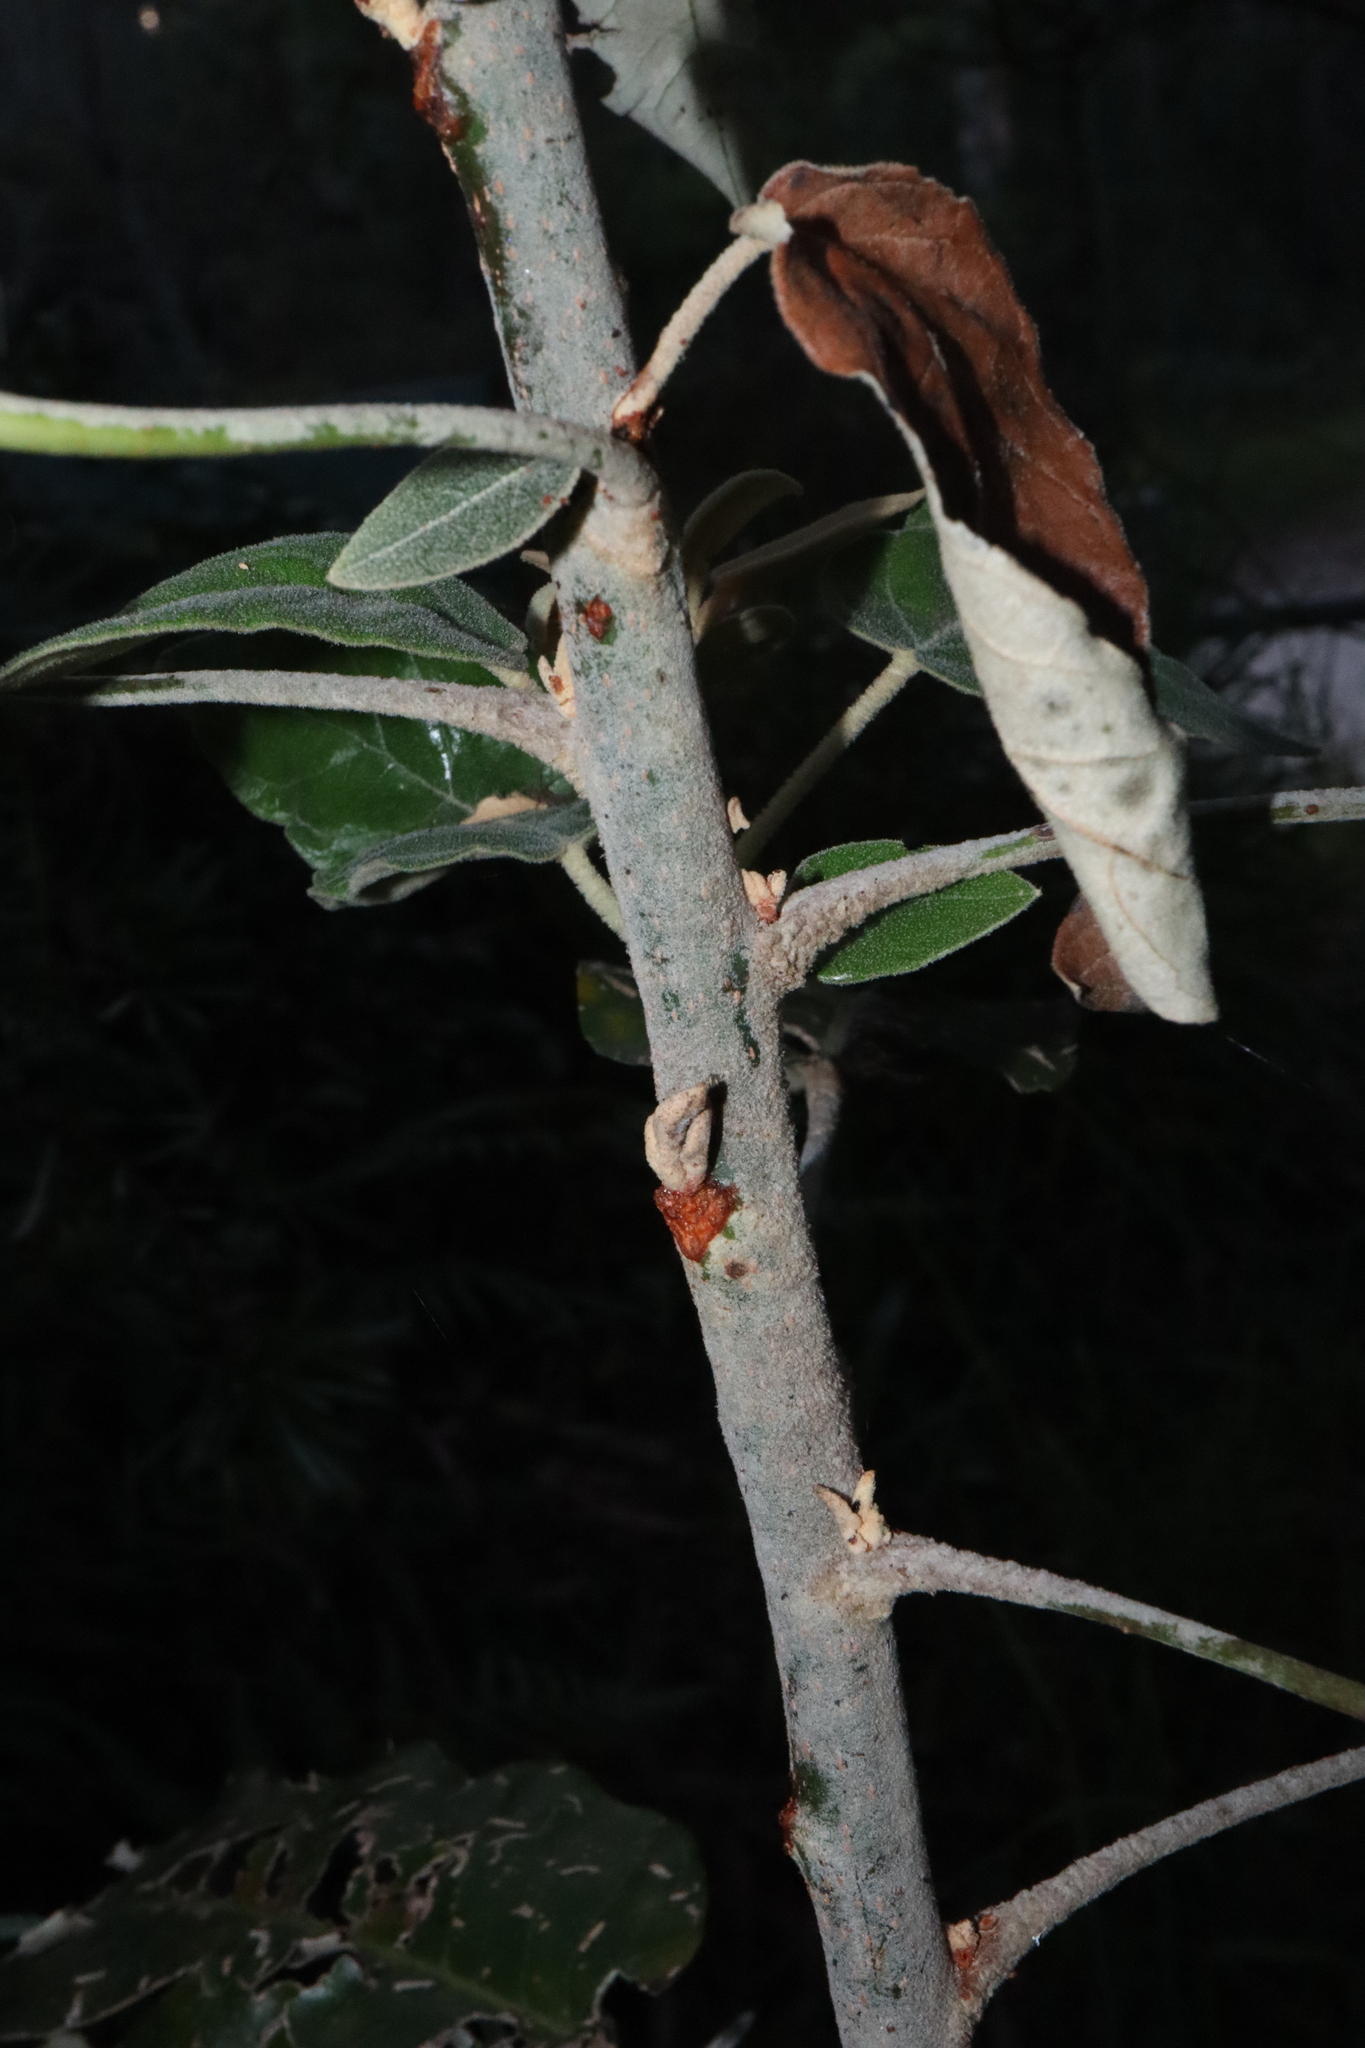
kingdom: Plantae
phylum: Tracheophyta
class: Magnoliopsida
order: Apiales
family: Araliaceae
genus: Astrotricha
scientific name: Astrotricha latifolia
